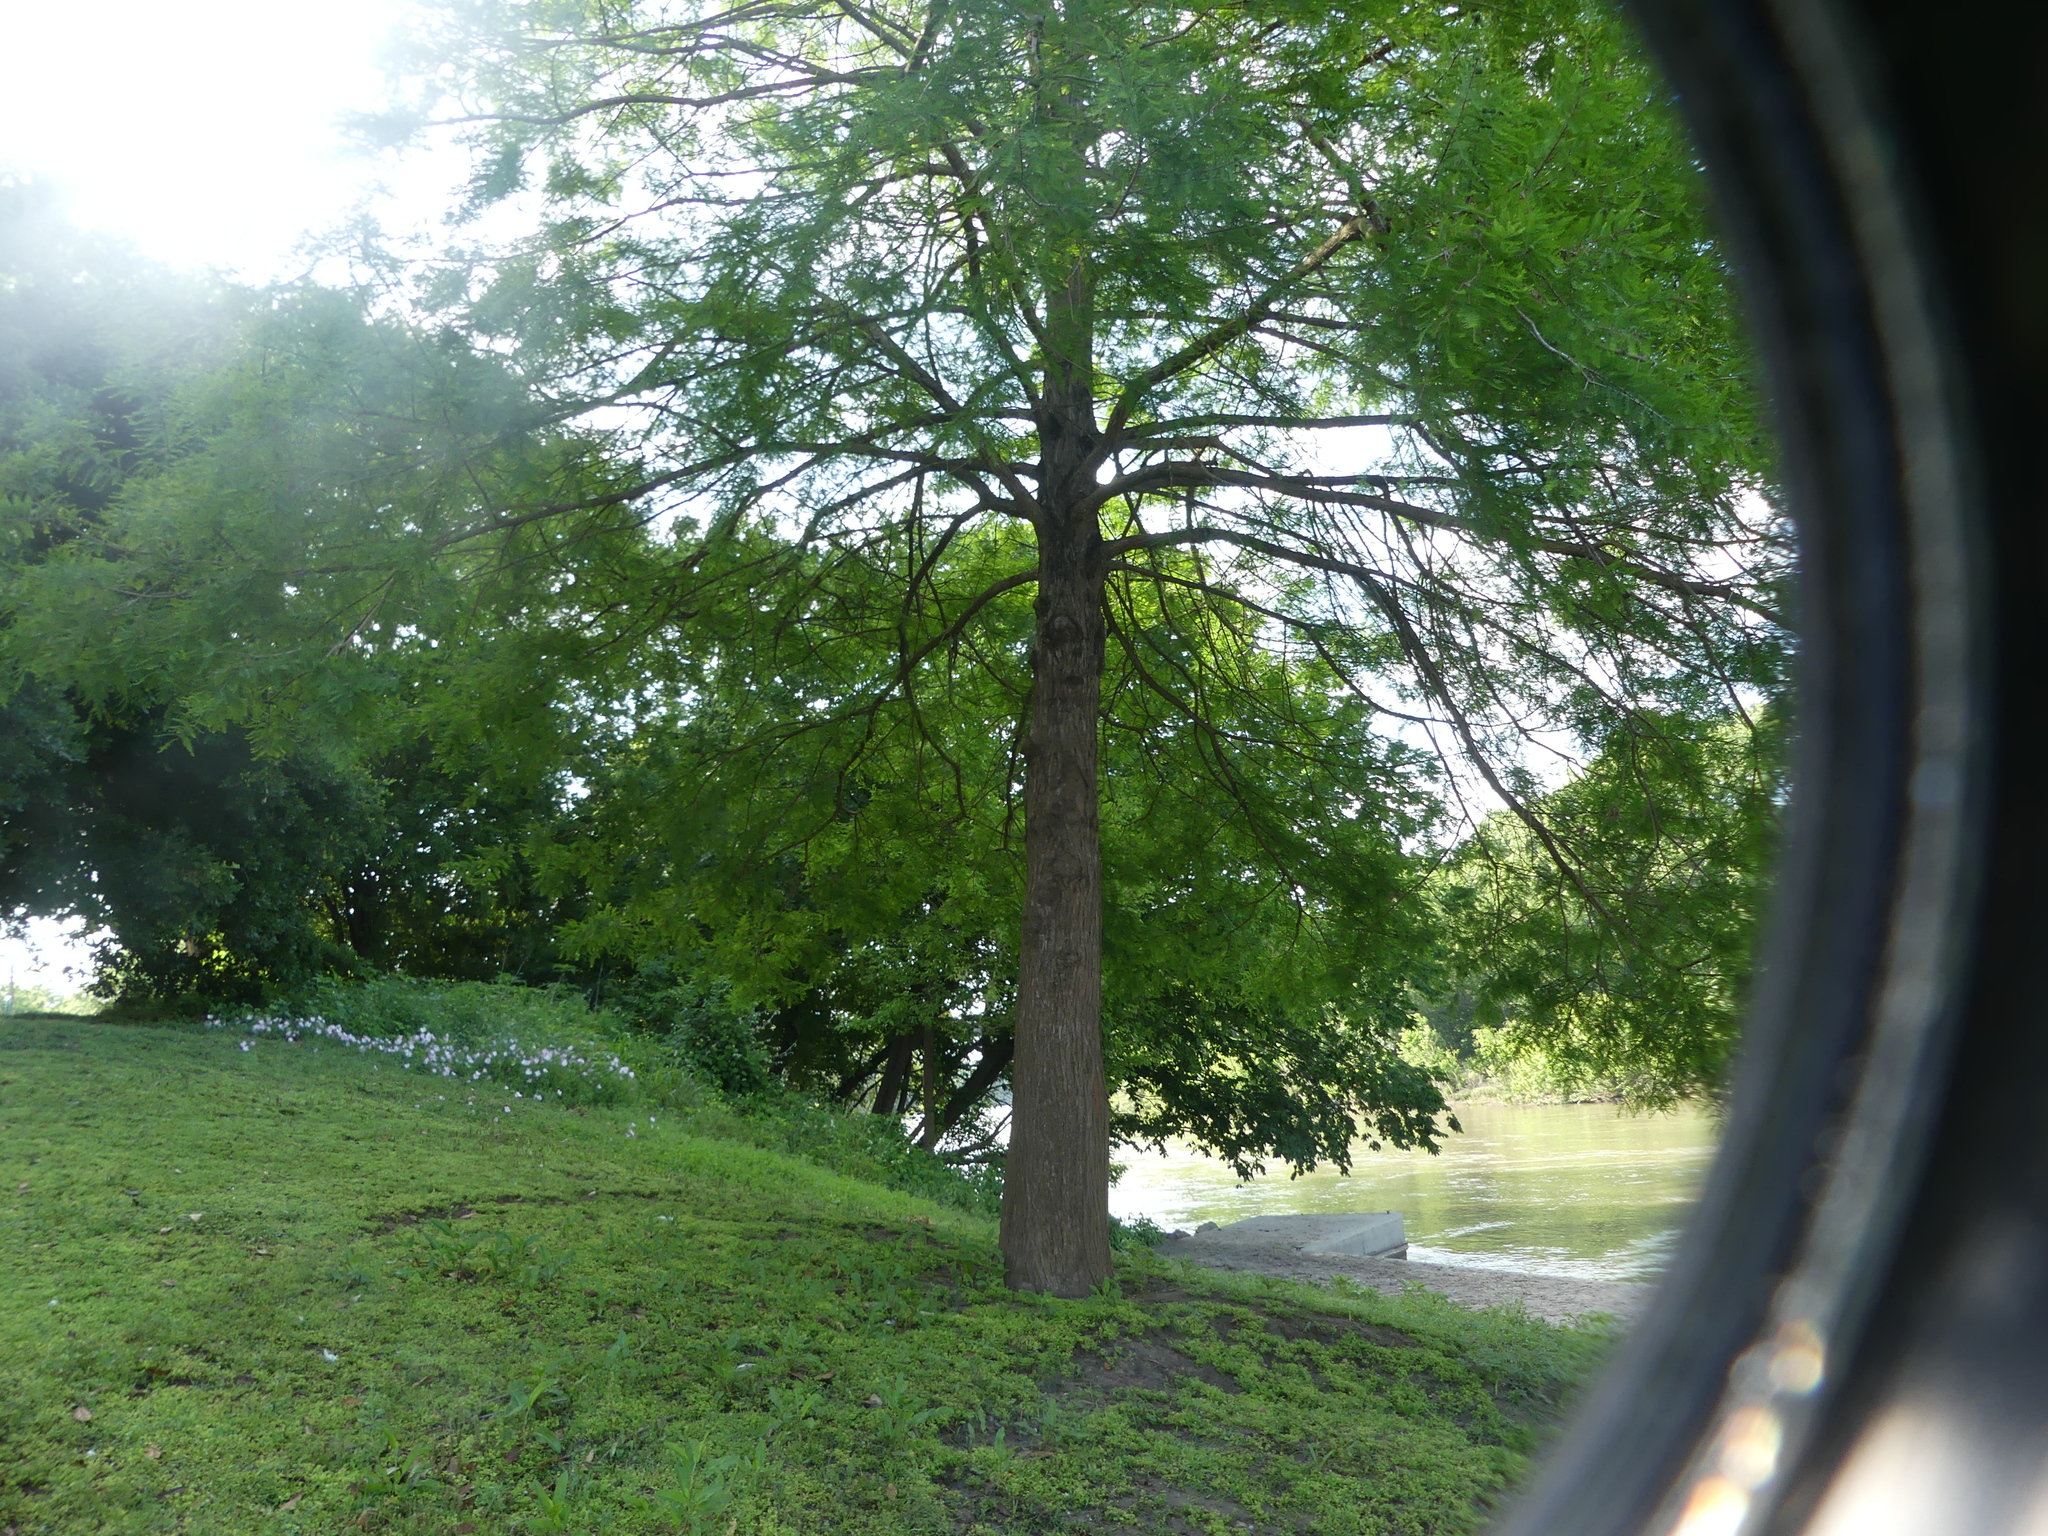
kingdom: Plantae
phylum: Tracheophyta
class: Pinopsida
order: Pinales
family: Cupressaceae
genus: Taxodium
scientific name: Taxodium distichum
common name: Bald cypress
